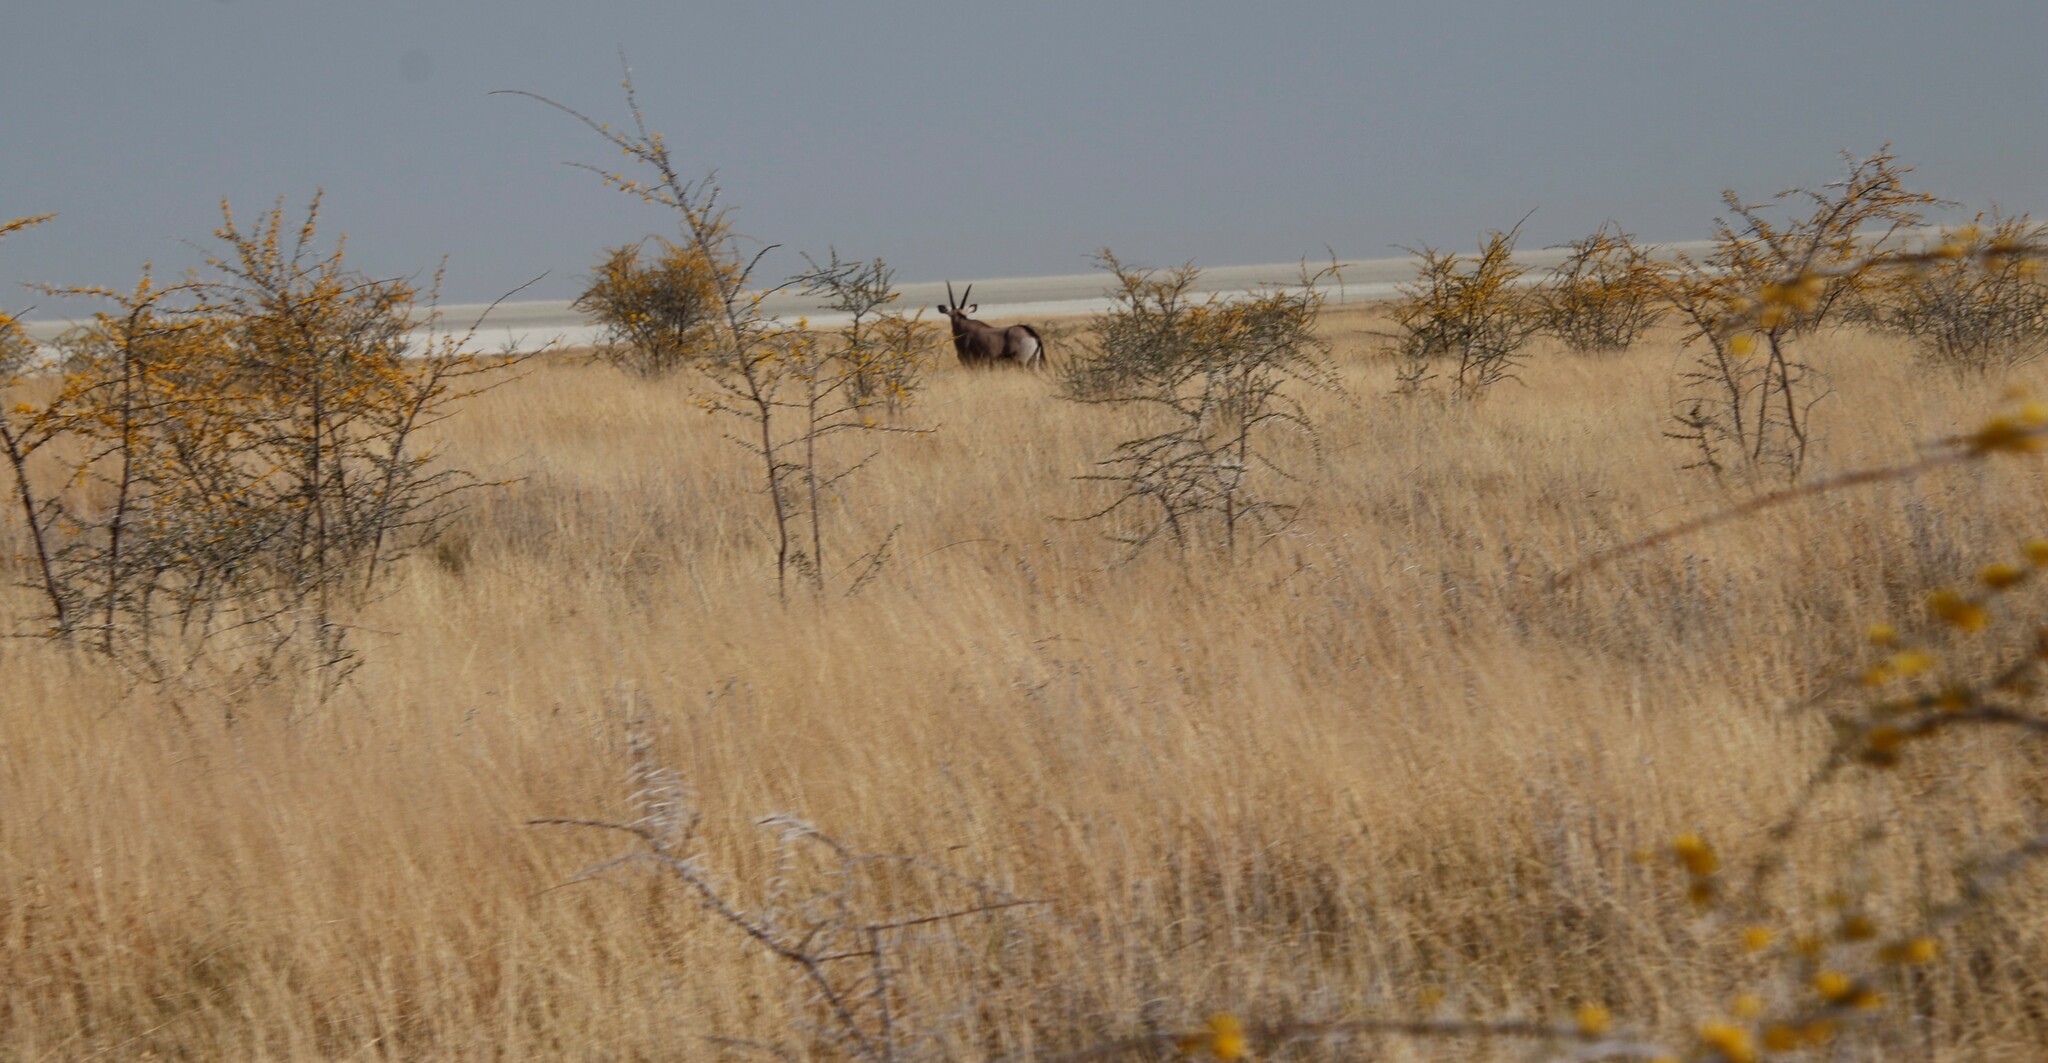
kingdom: Animalia
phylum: Chordata
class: Mammalia
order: Artiodactyla
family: Bovidae
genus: Oryx
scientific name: Oryx gazella
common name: Gemsbok
